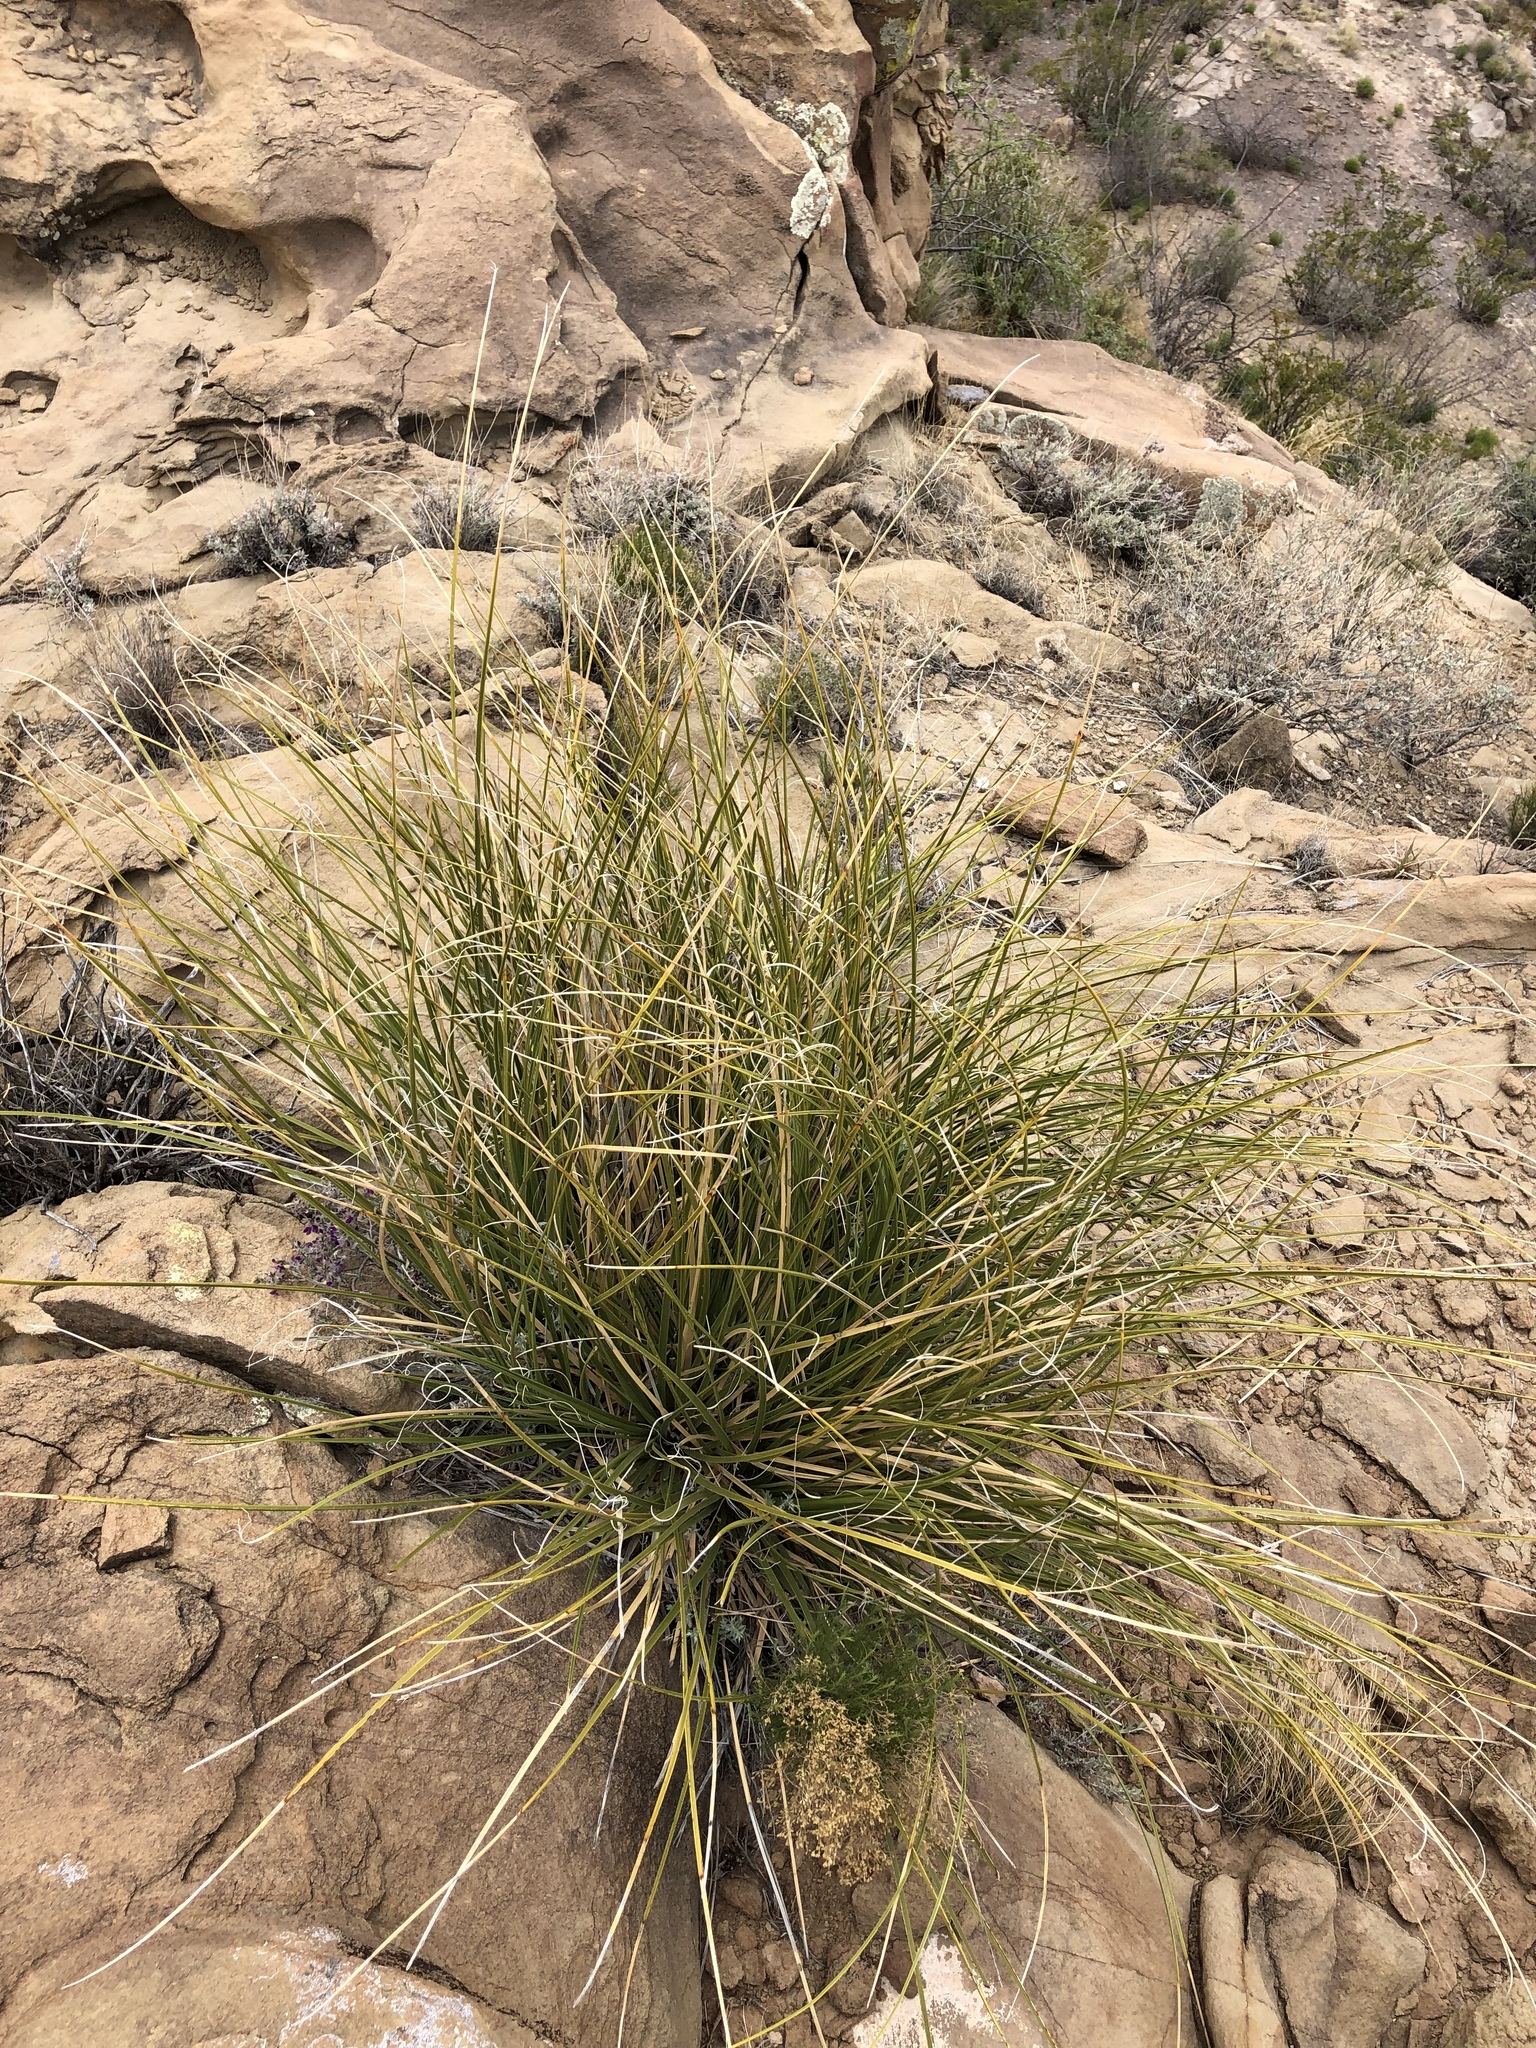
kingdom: Plantae
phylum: Tracheophyta
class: Liliopsida
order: Asparagales
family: Asparagaceae
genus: Nolina
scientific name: Nolina microcarpa
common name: Bear-grass
